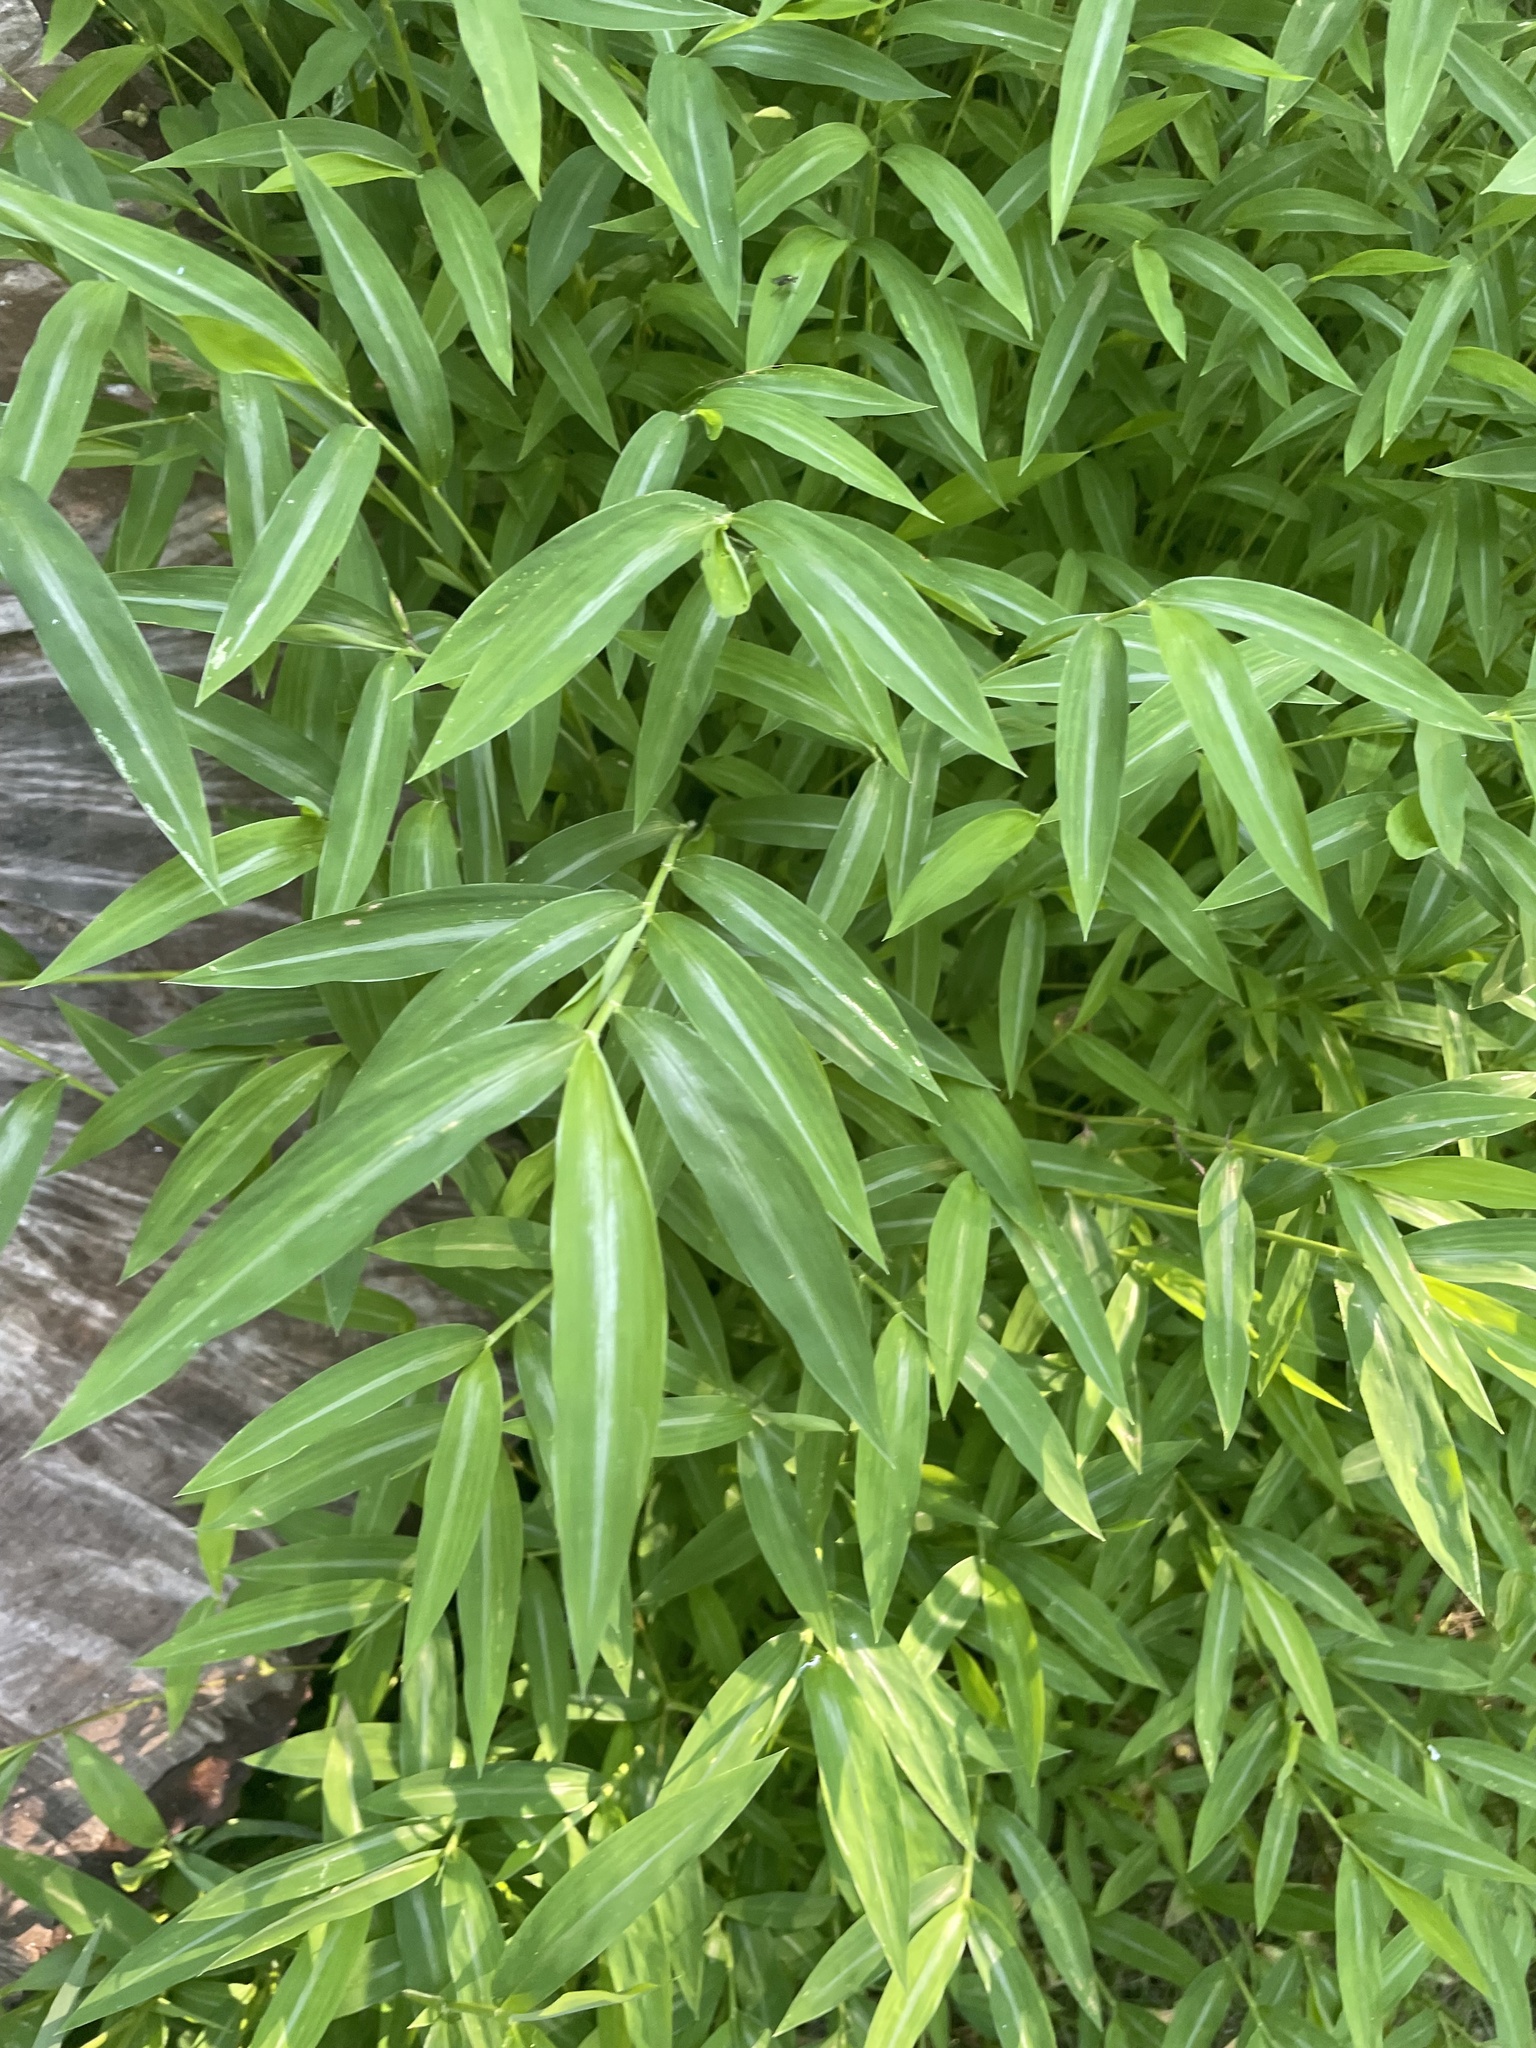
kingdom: Plantae
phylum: Tracheophyta
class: Liliopsida
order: Poales
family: Poaceae
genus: Microstegium
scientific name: Microstegium vimineum
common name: Japanese stiltgrass
